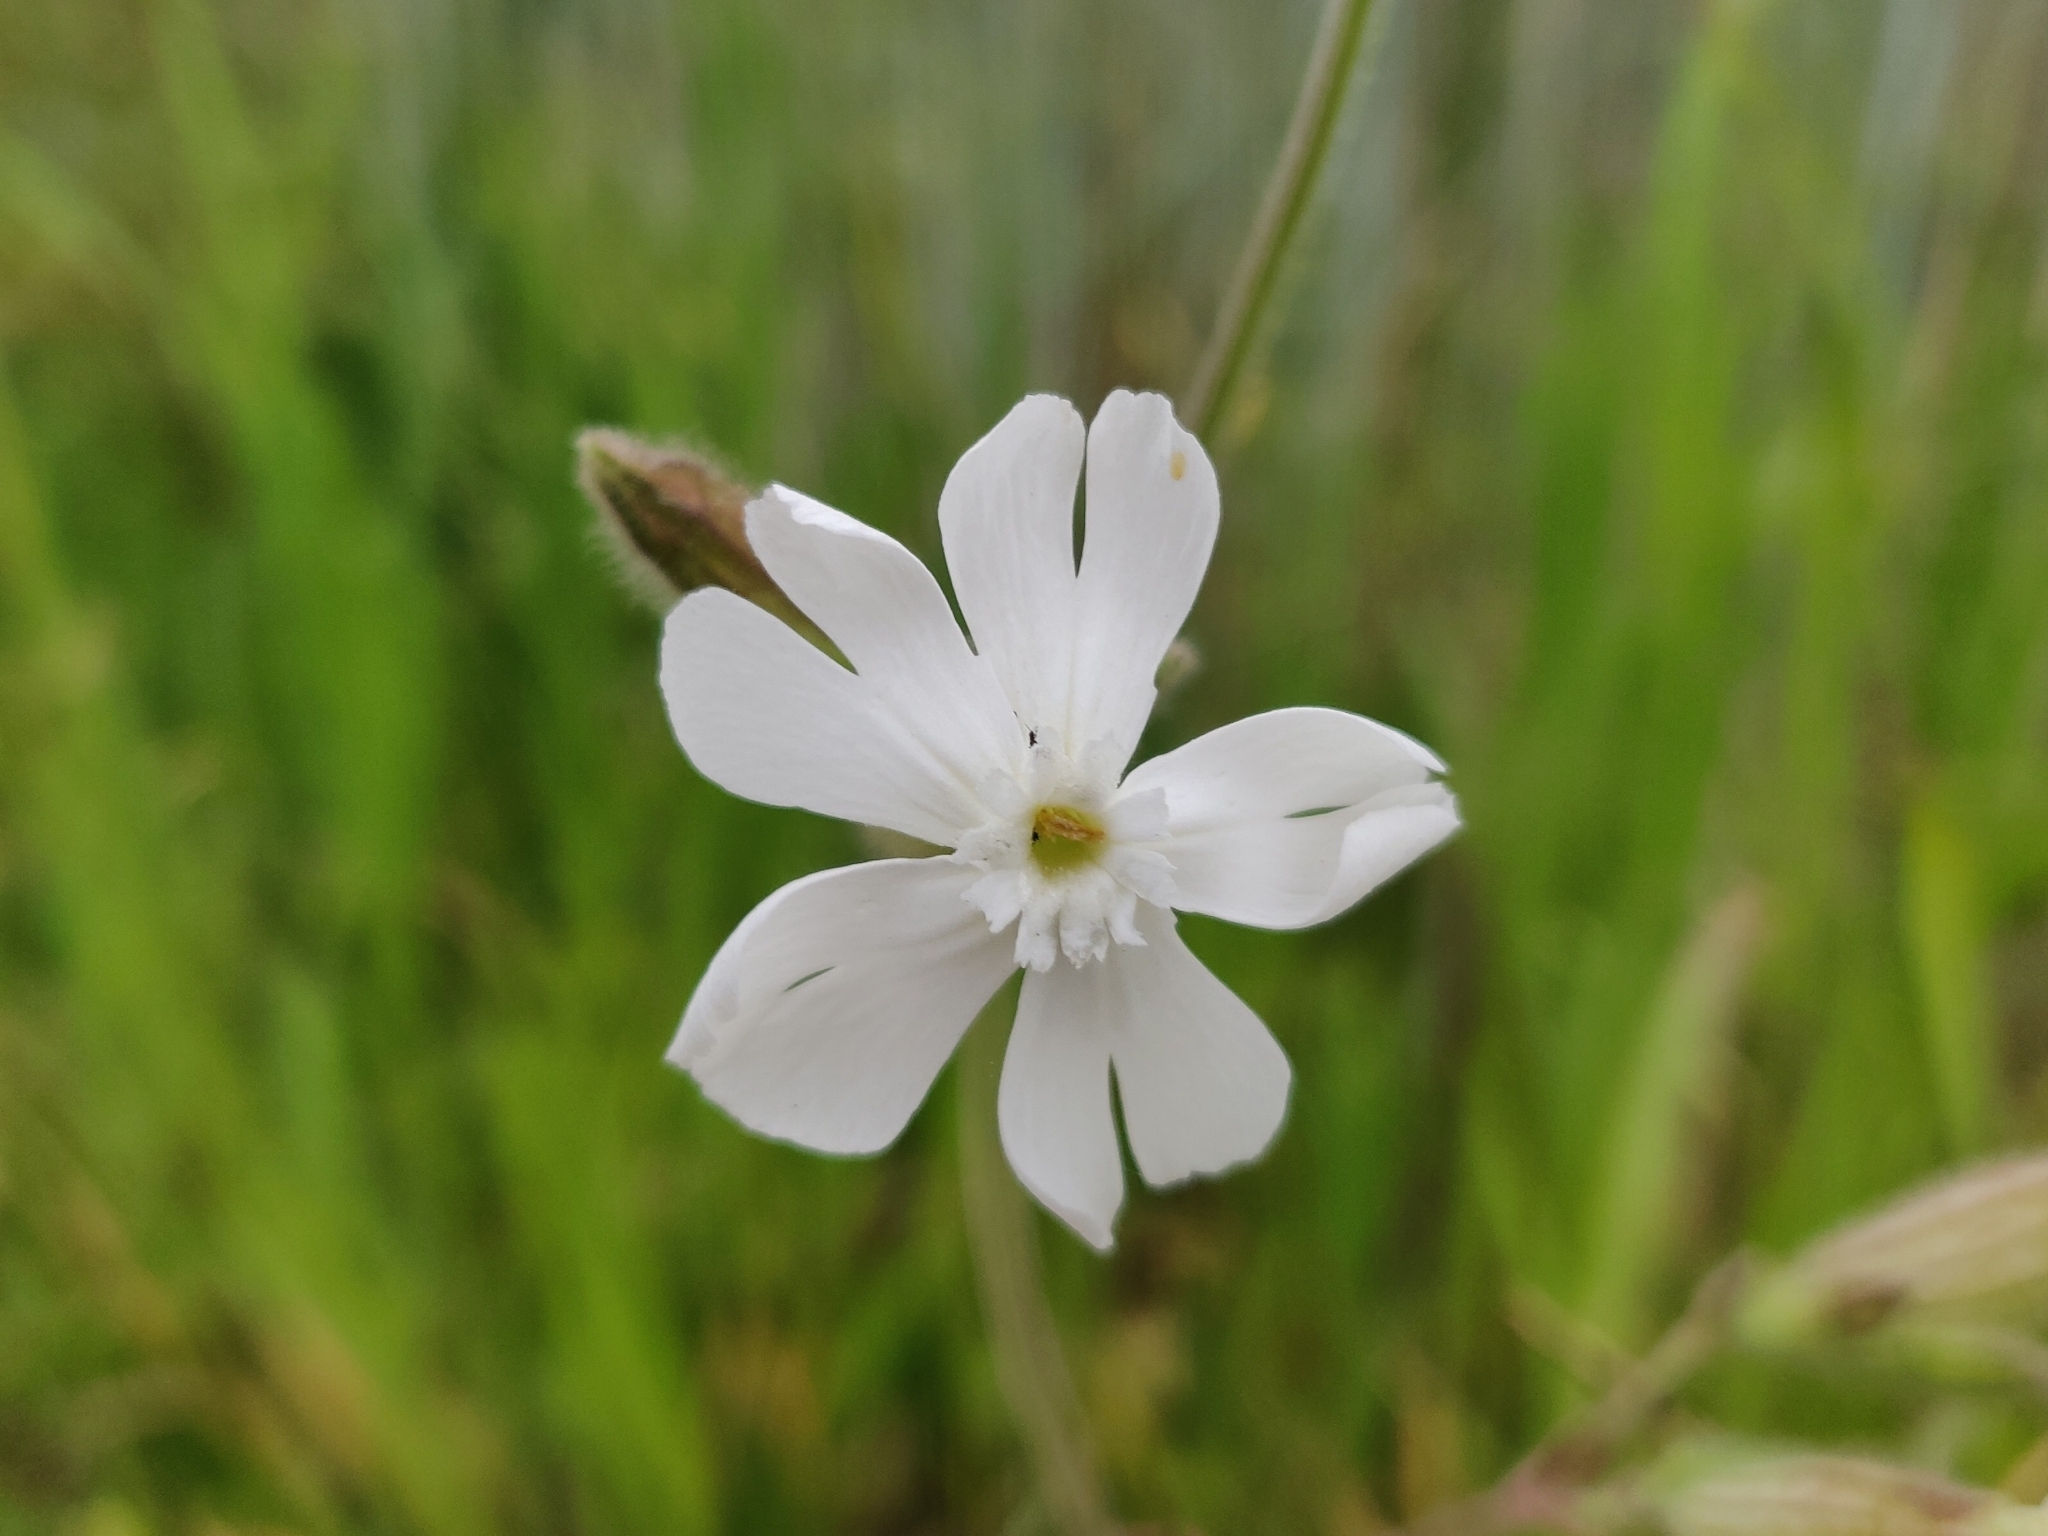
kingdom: Plantae
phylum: Tracheophyta
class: Magnoliopsida
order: Caryophyllales
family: Caryophyllaceae
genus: Silene
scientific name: Silene latifolia
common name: White campion
